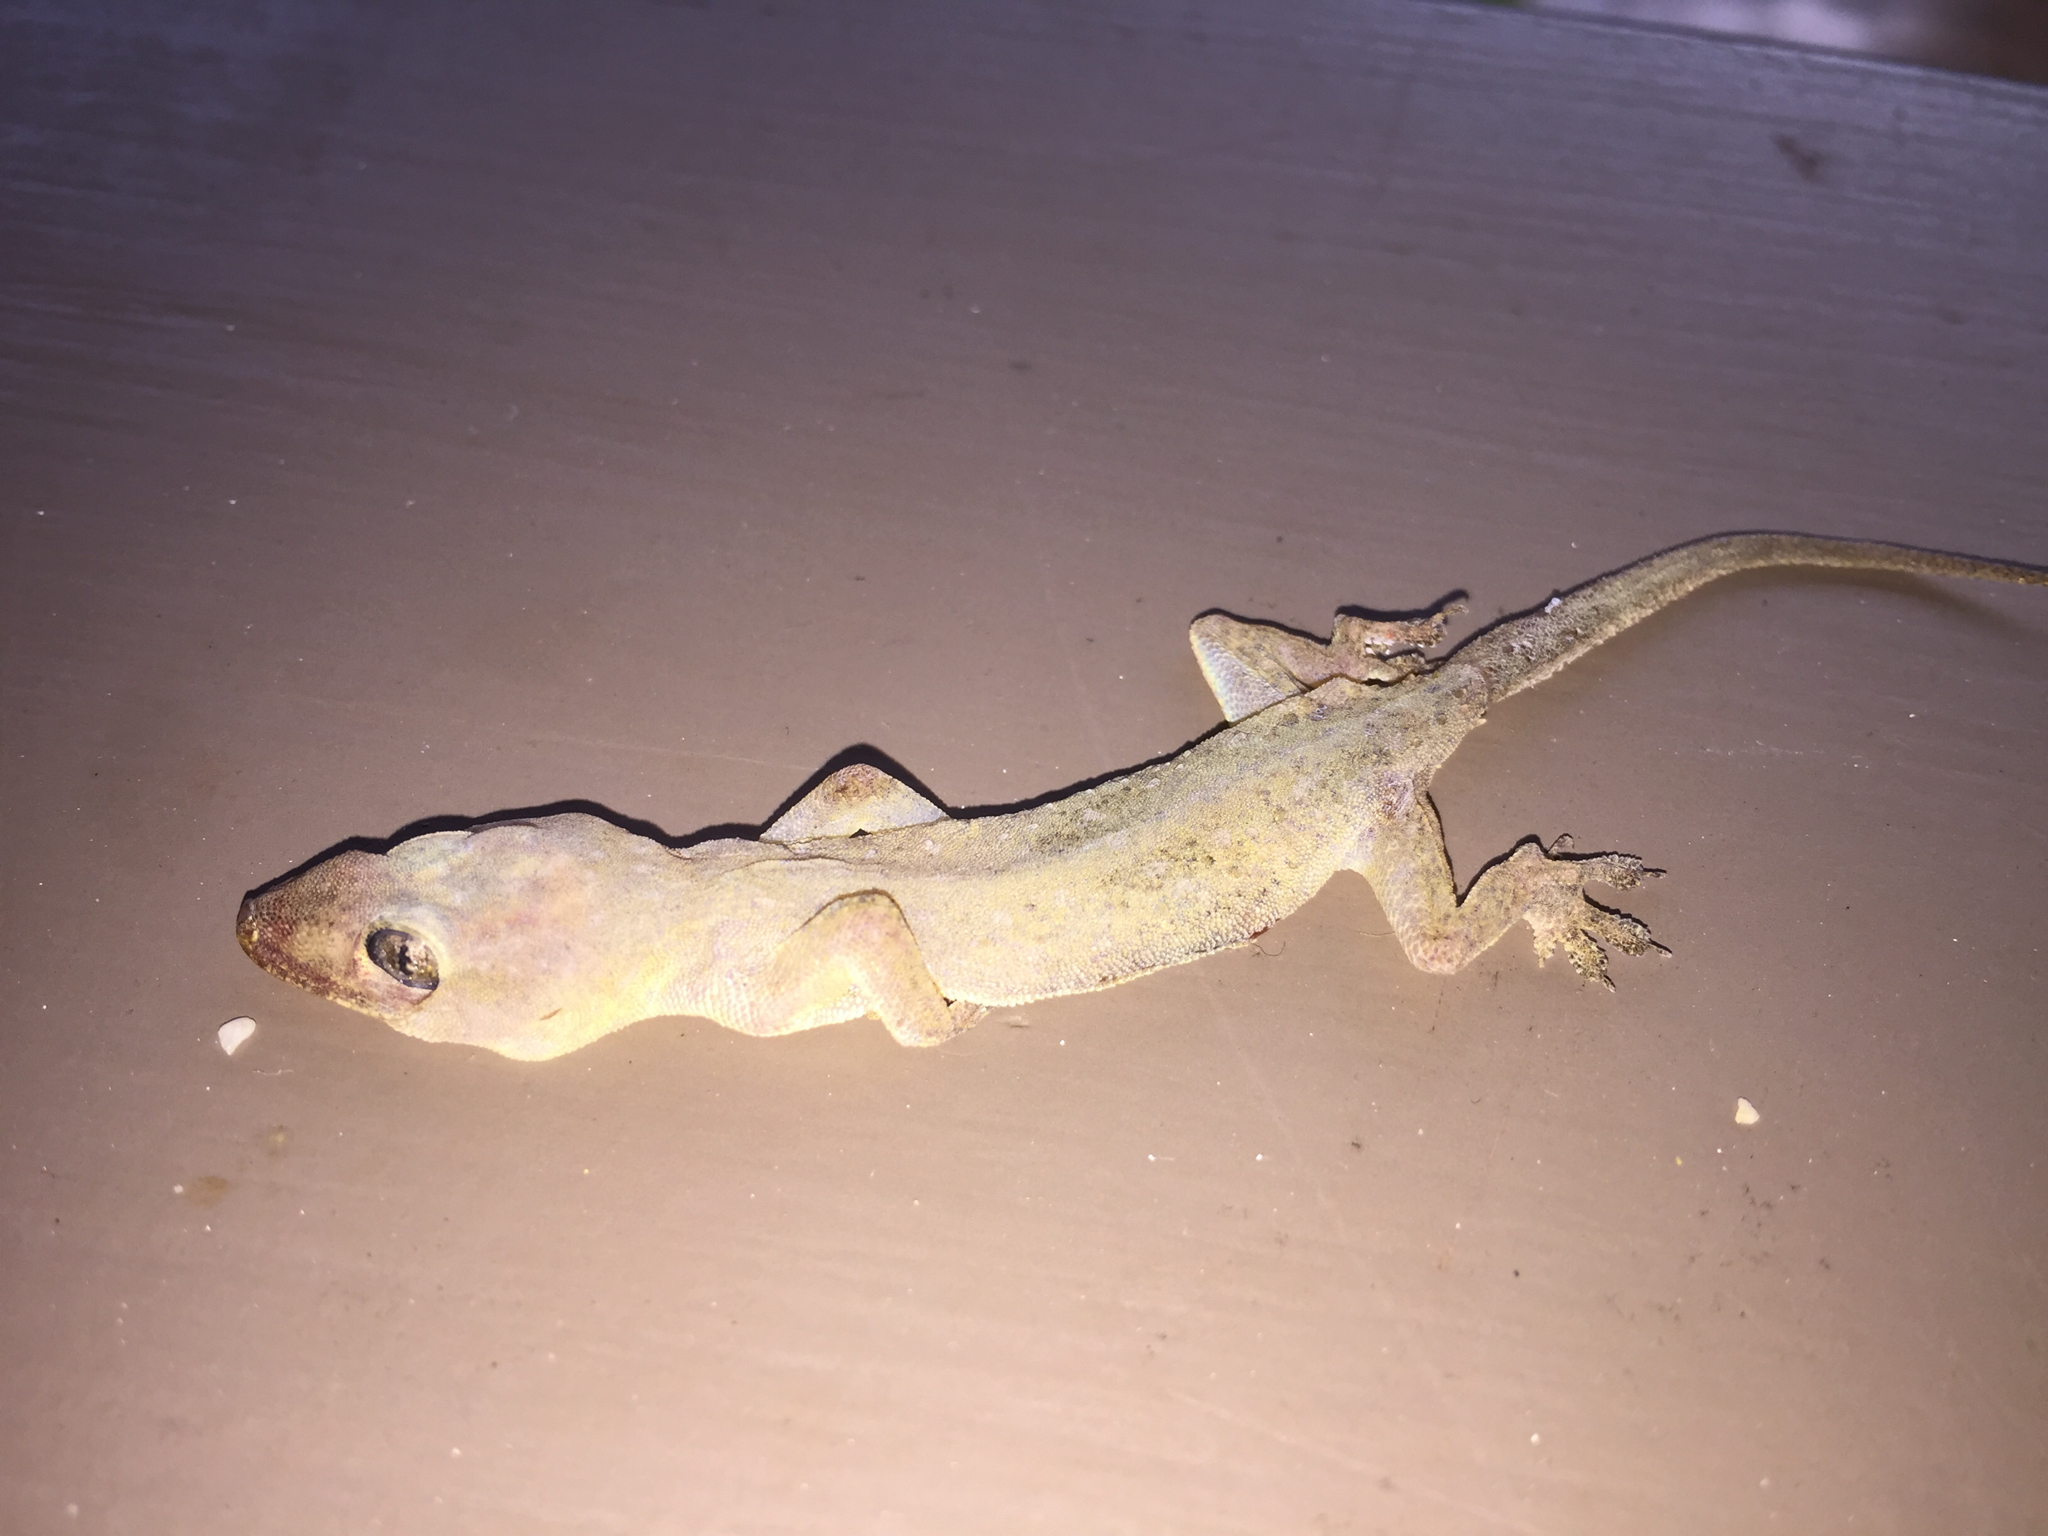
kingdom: Animalia
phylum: Chordata
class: Squamata
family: Gekkonidae
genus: Hemidactylus
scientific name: Hemidactylus frenatus
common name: Common house gecko
